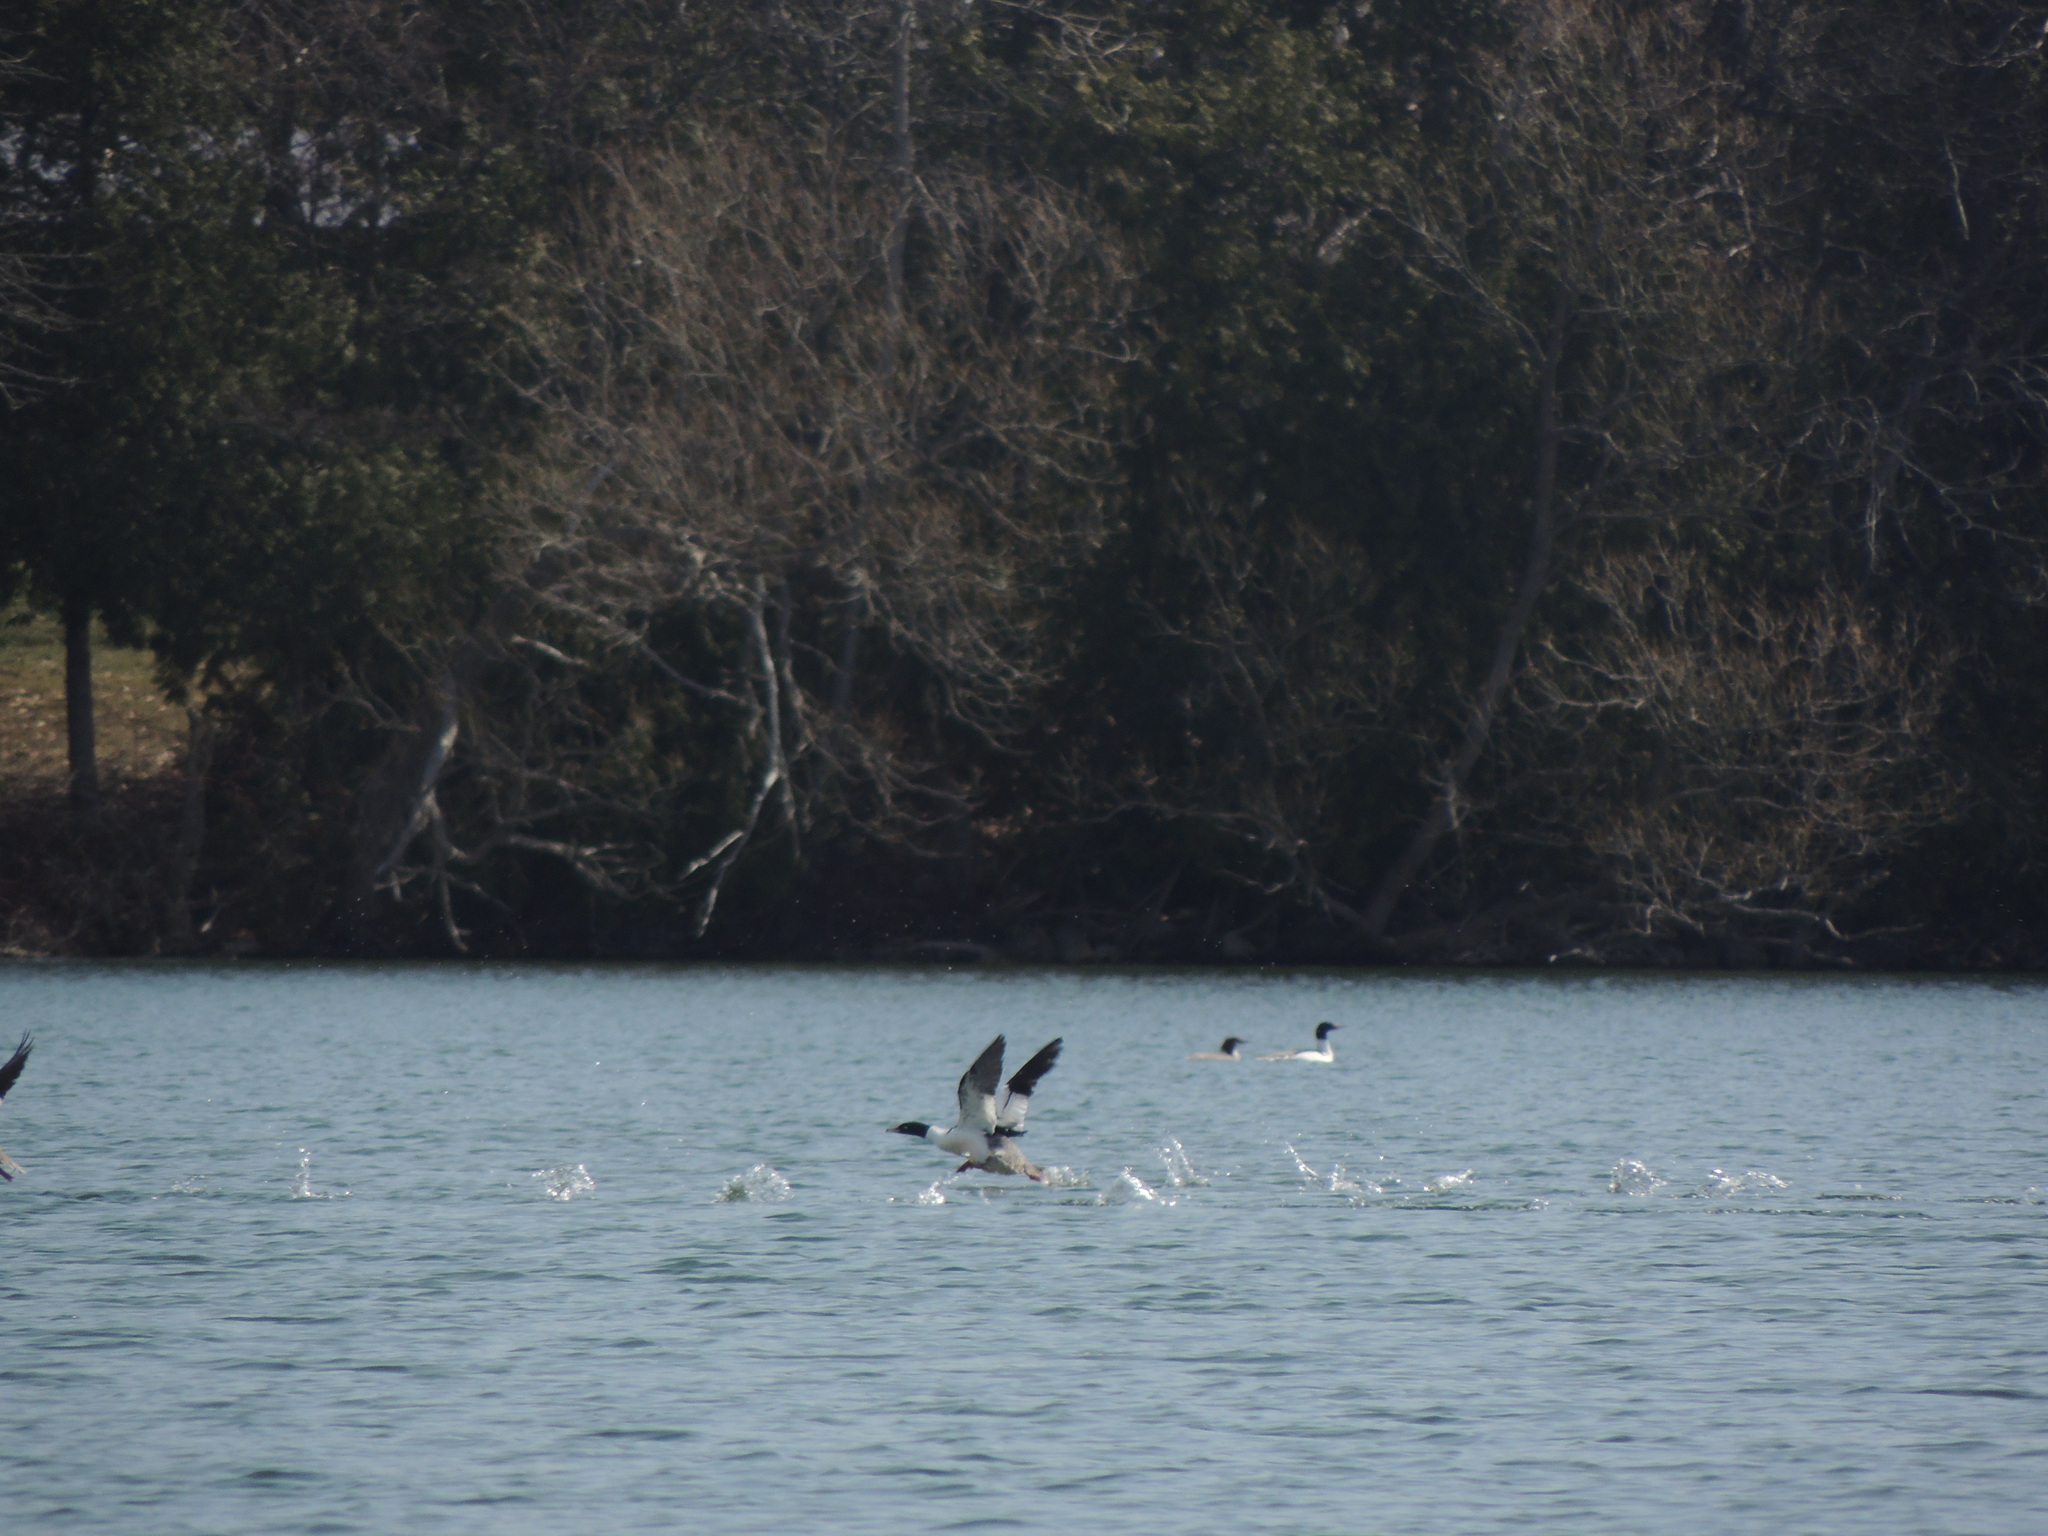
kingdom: Animalia
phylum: Chordata
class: Aves
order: Anseriformes
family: Anatidae
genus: Mergus
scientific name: Mergus merganser
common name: Common merganser
